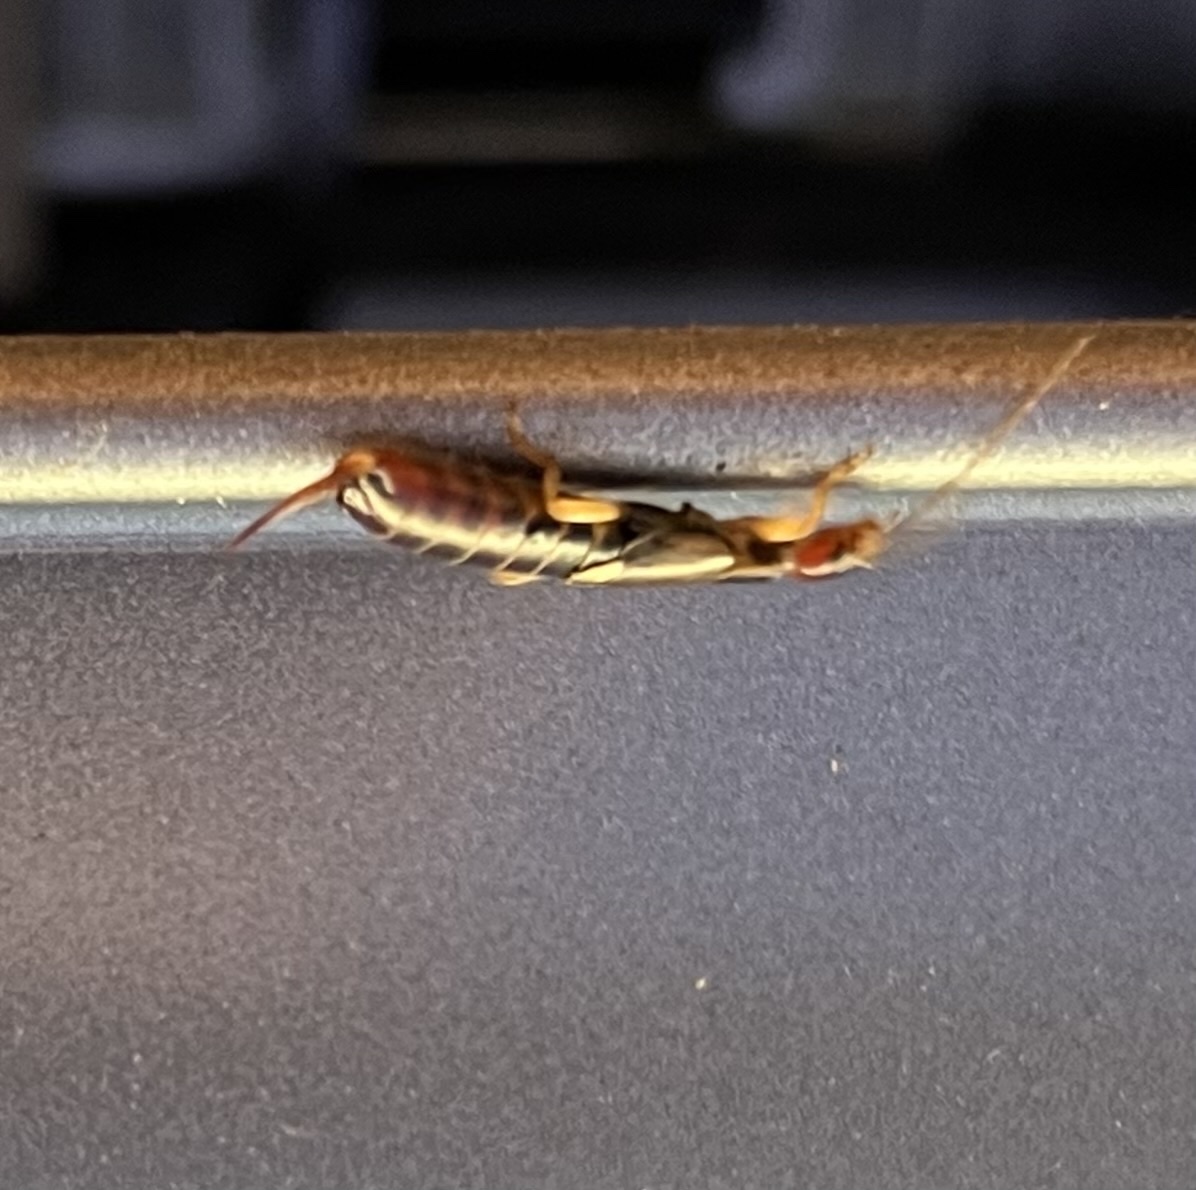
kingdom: Animalia
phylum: Arthropoda
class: Insecta
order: Dermaptera
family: Forficulidae
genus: Forficula
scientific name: Forficula
